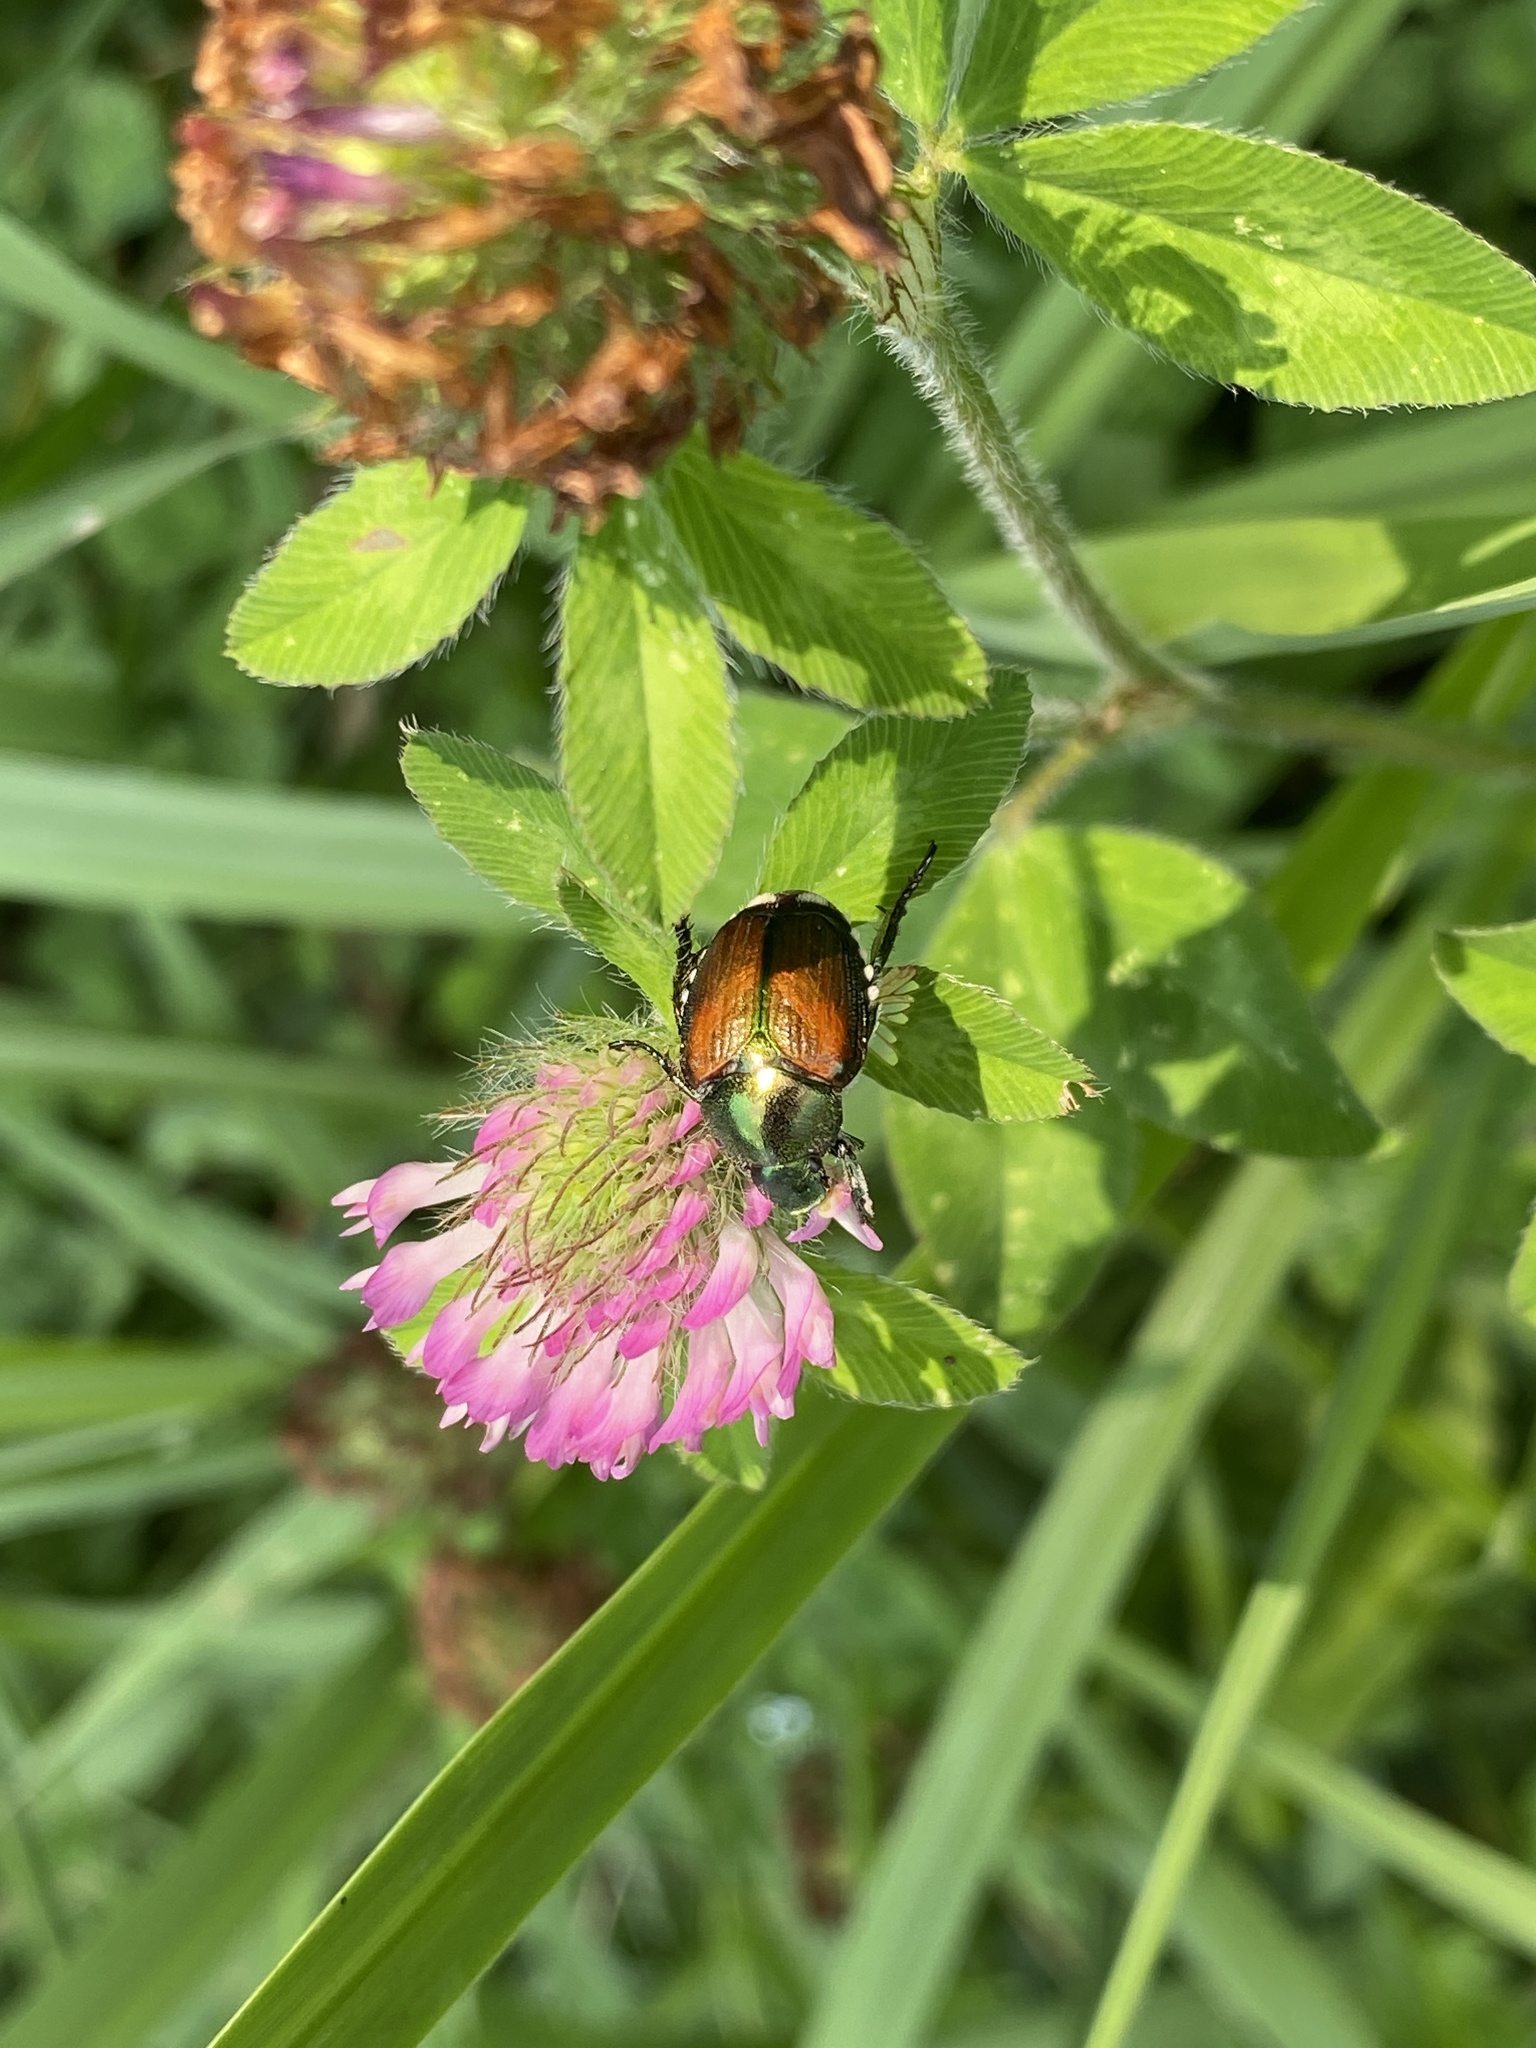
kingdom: Animalia
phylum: Arthropoda
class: Insecta
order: Coleoptera
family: Scarabaeidae
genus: Popillia
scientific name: Popillia japonica
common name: Japanese beetle
